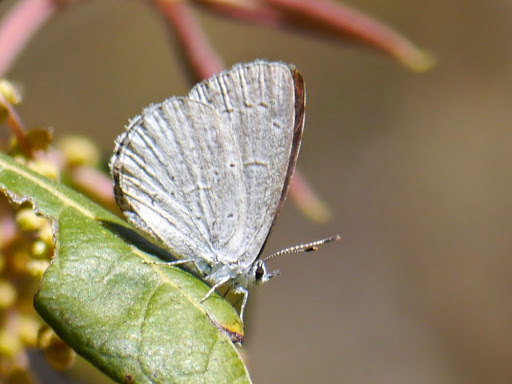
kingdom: Animalia
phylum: Arthropoda
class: Insecta
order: Lepidoptera
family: Lycaenidae
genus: Celastrina
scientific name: Celastrina ladon
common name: Spring azure
